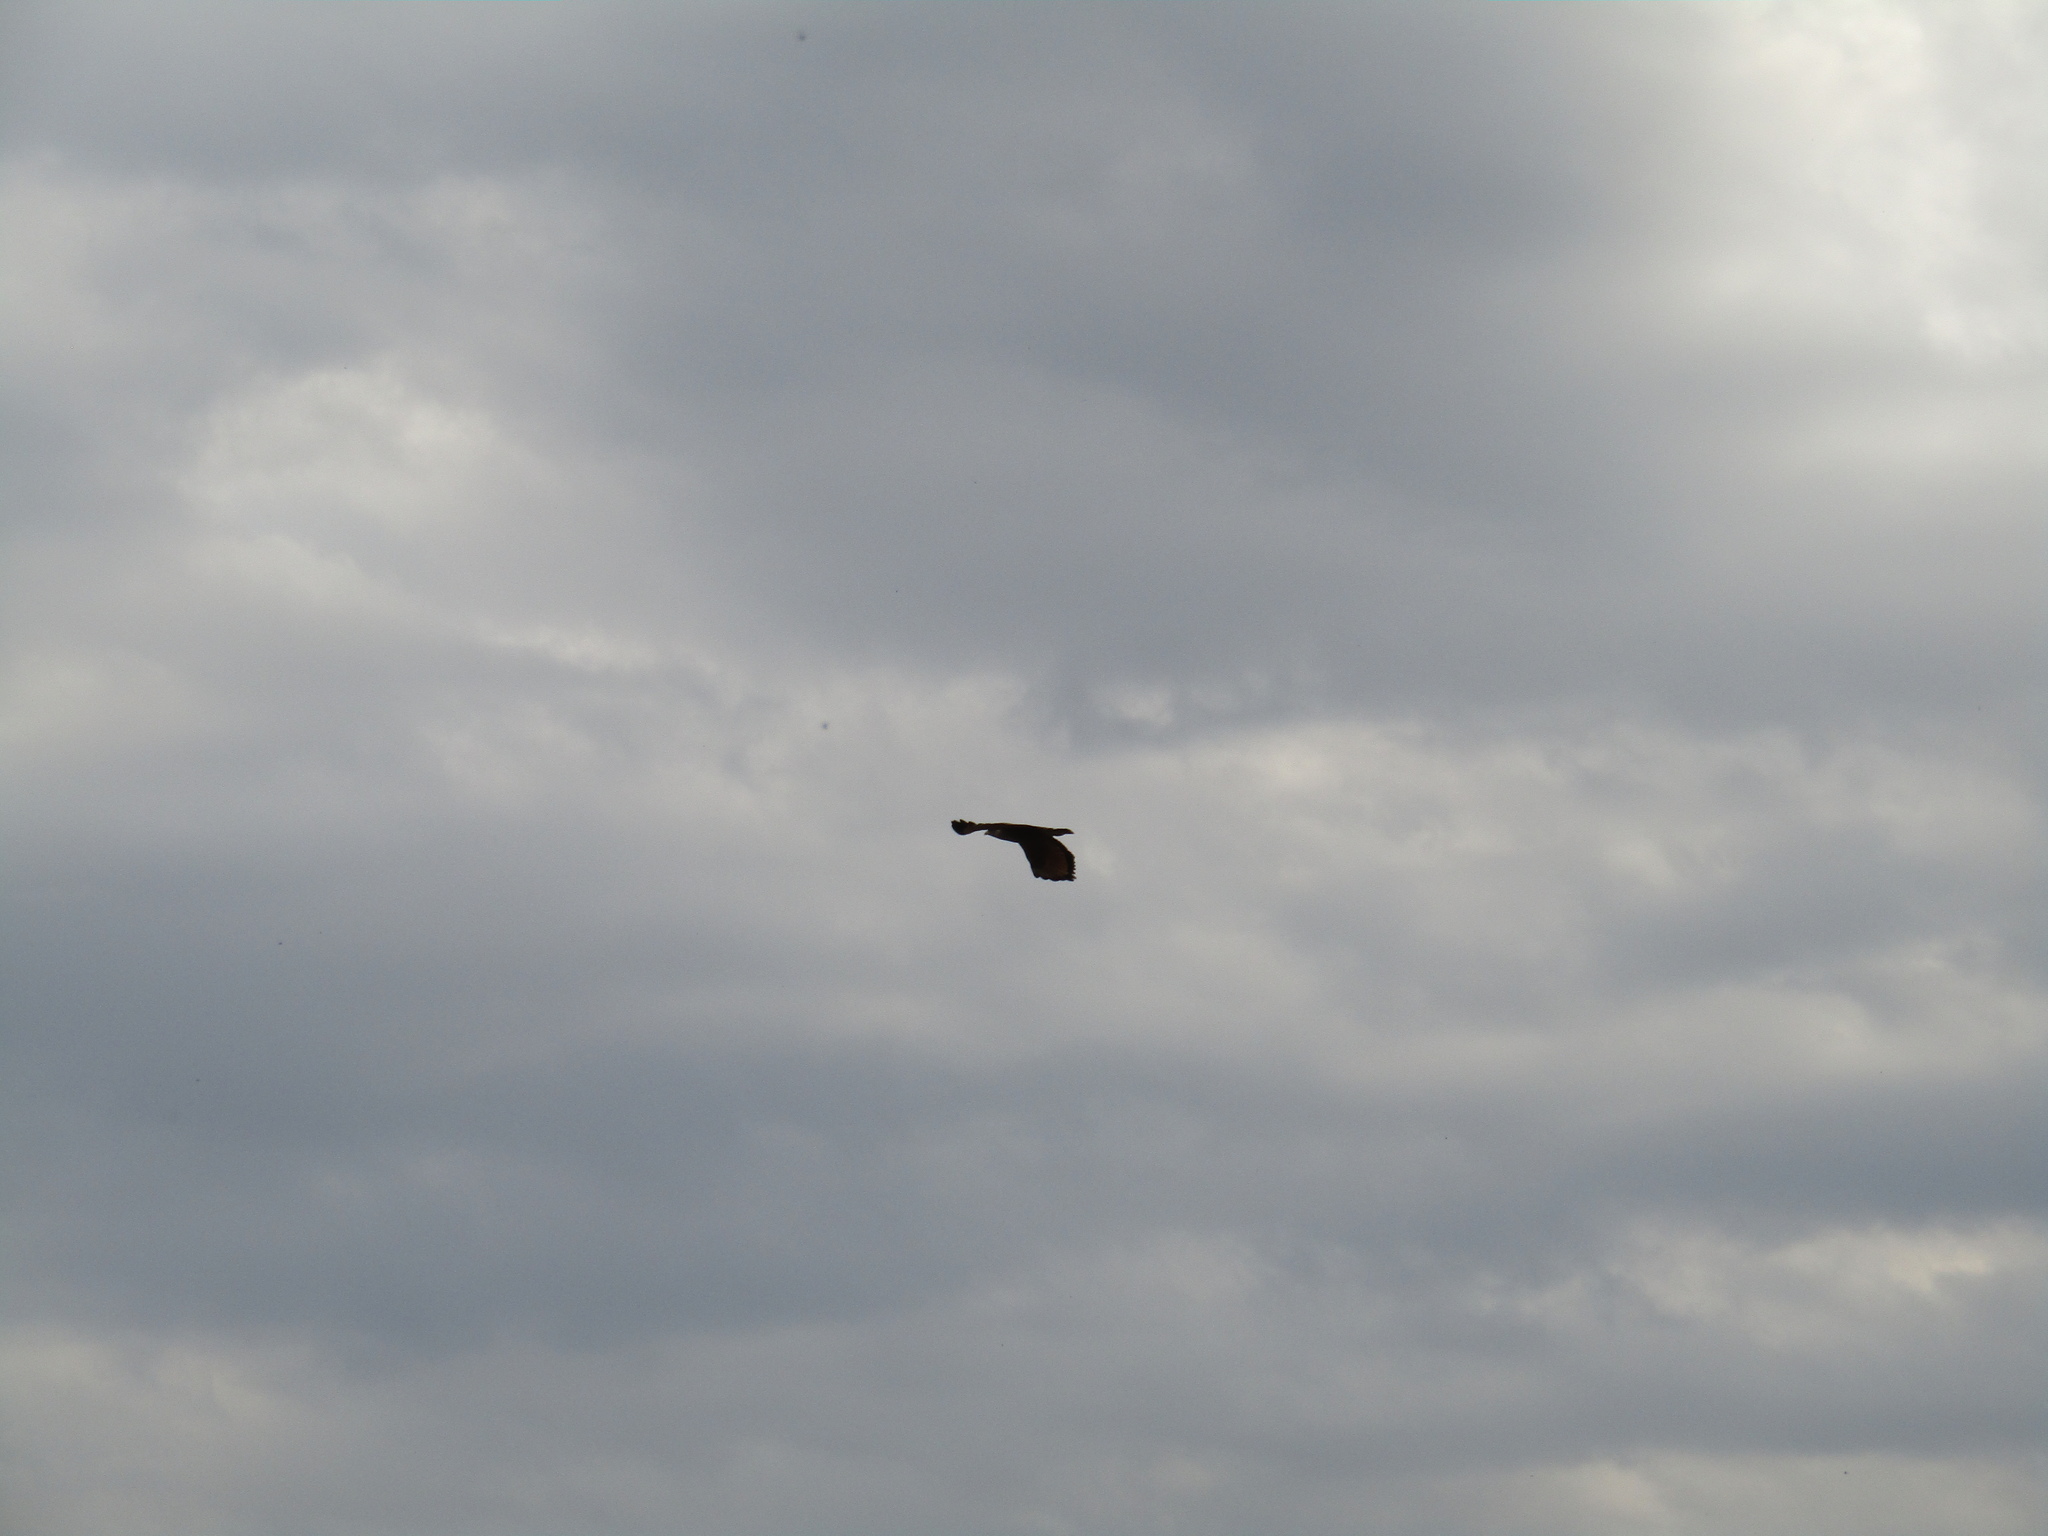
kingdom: Animalia
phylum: Chordata
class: Aves
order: Accipitriformes
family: Accipitridae
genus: Buteogallus
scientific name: Buteogallus meridionalis
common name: Savanna hawk
